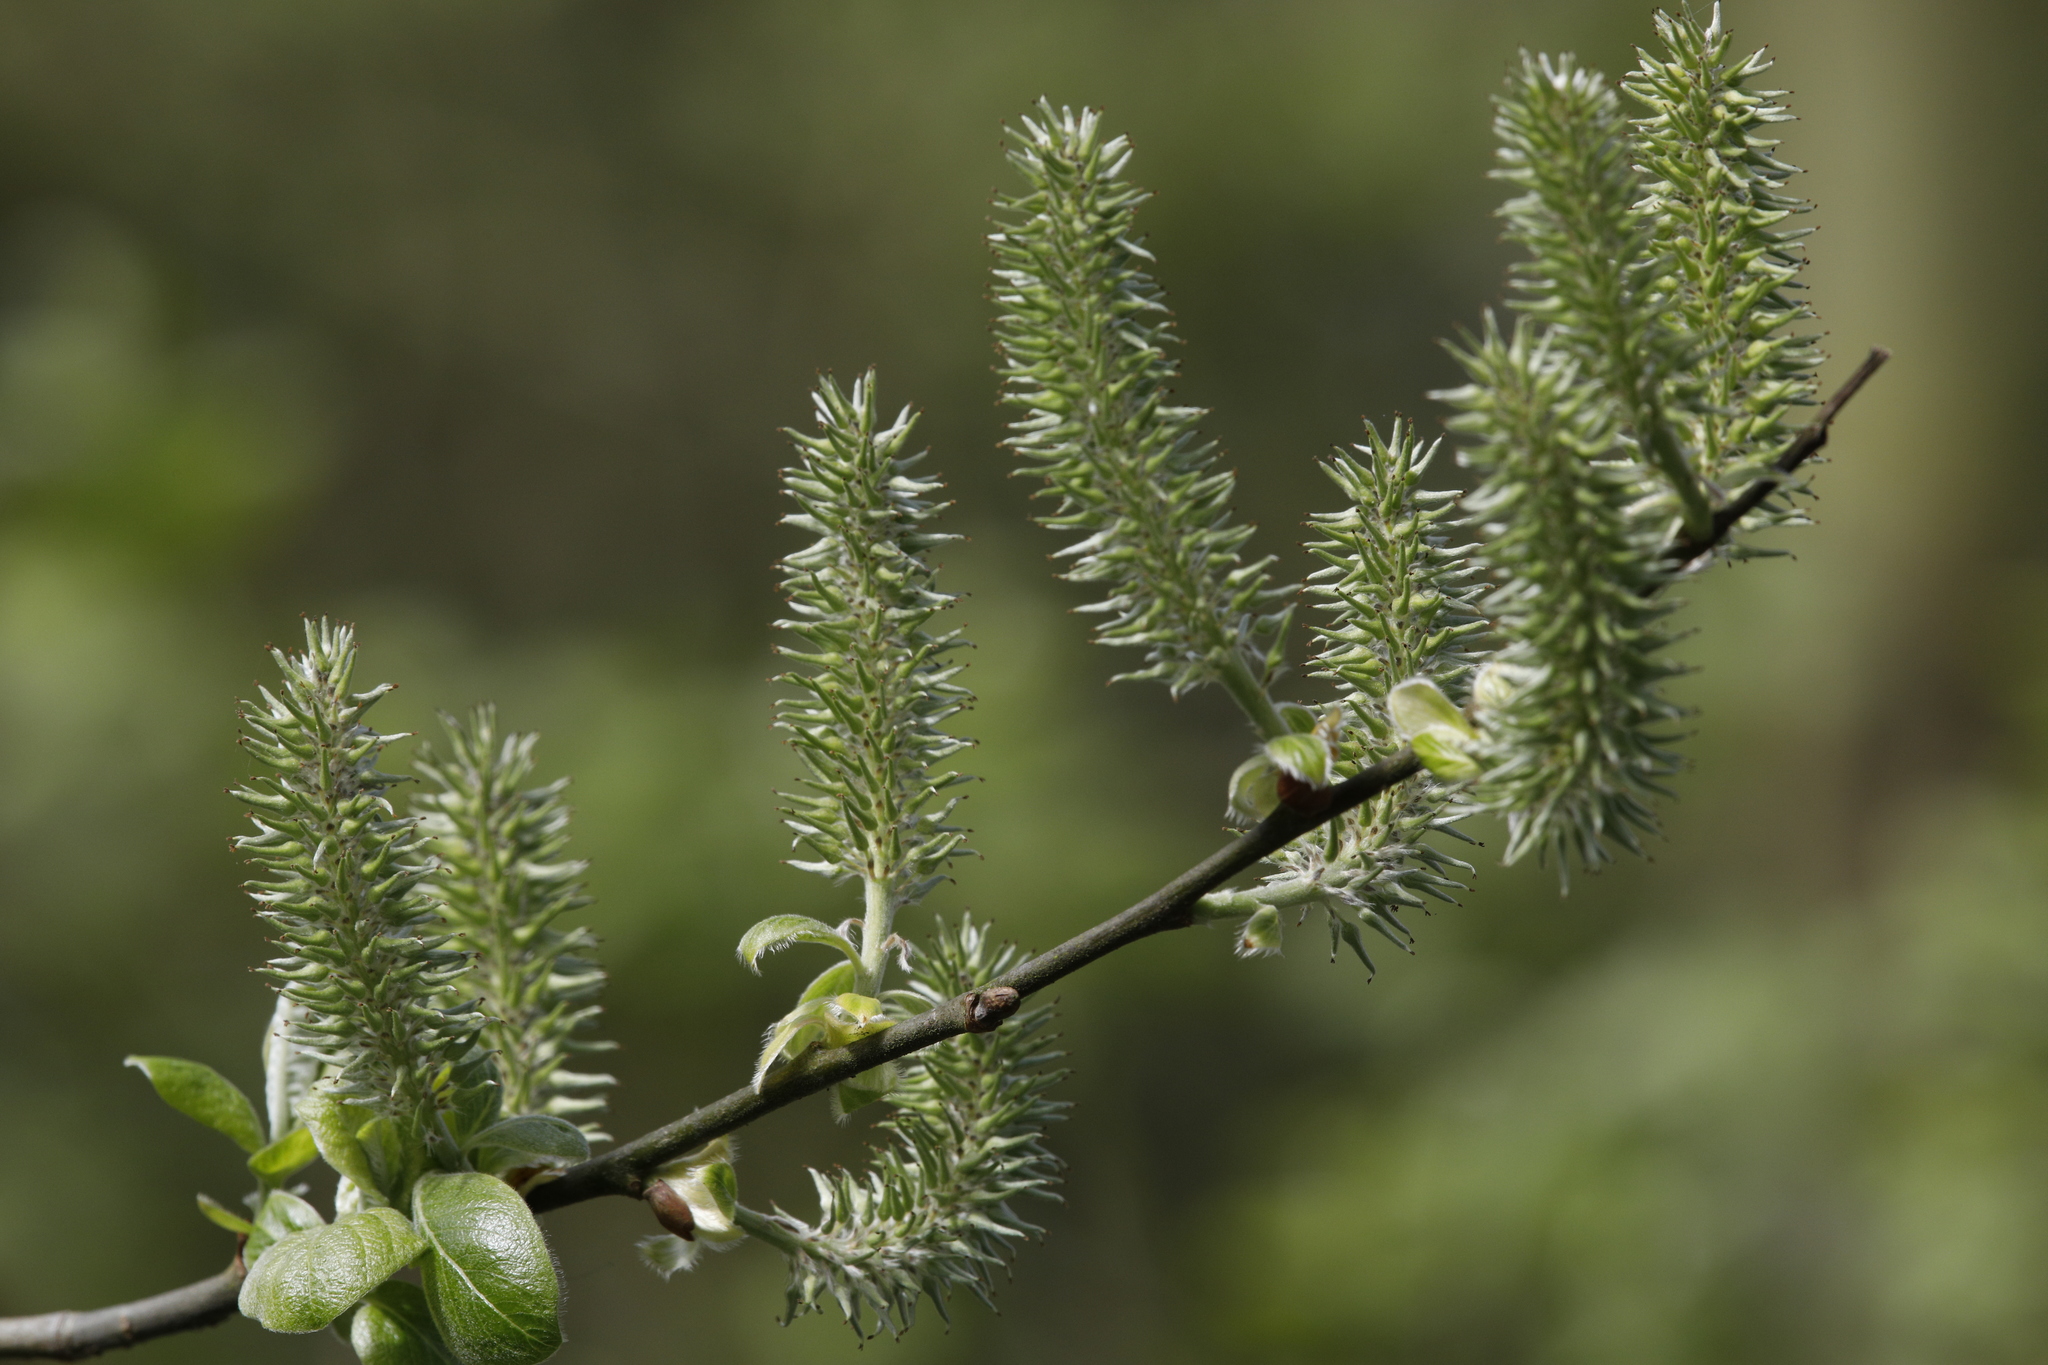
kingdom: Plantae
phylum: Tracheophyta
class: Magnoliopsida
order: Malpighiales
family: Salicaceae
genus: Salix
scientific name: Salix cinerea
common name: Common sallow
